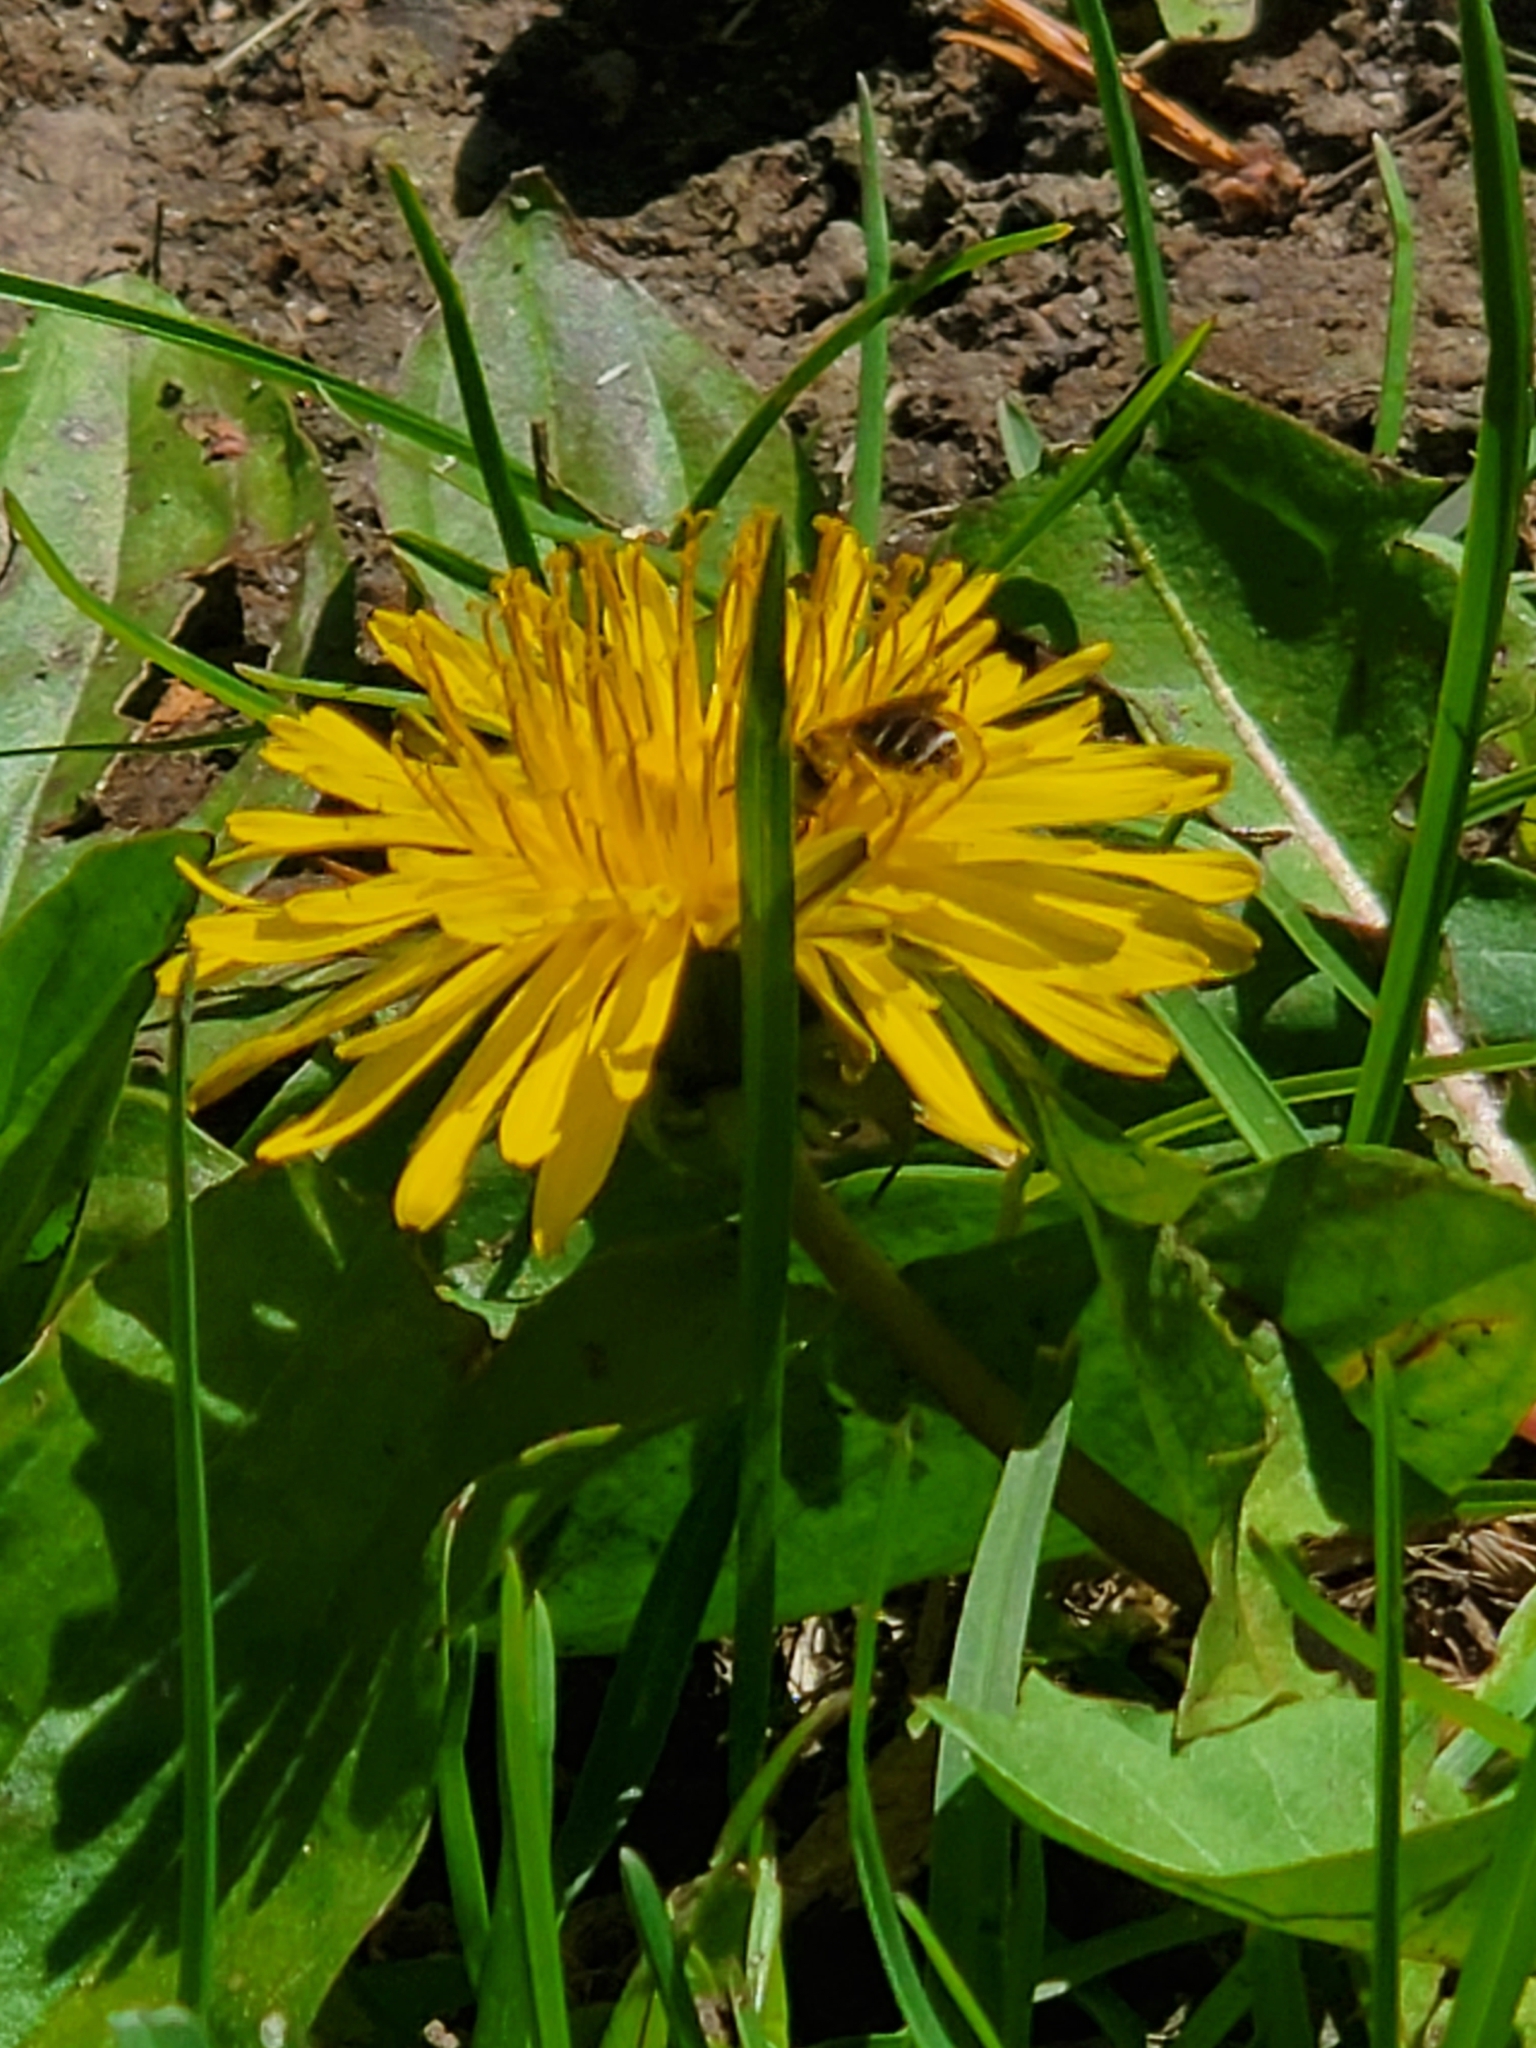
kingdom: Animalia
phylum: Arthropoda
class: Insecta
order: Hymenoptera
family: Andrenidae
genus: Andrena
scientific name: Andrena nasonii
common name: Nason's mining bee
